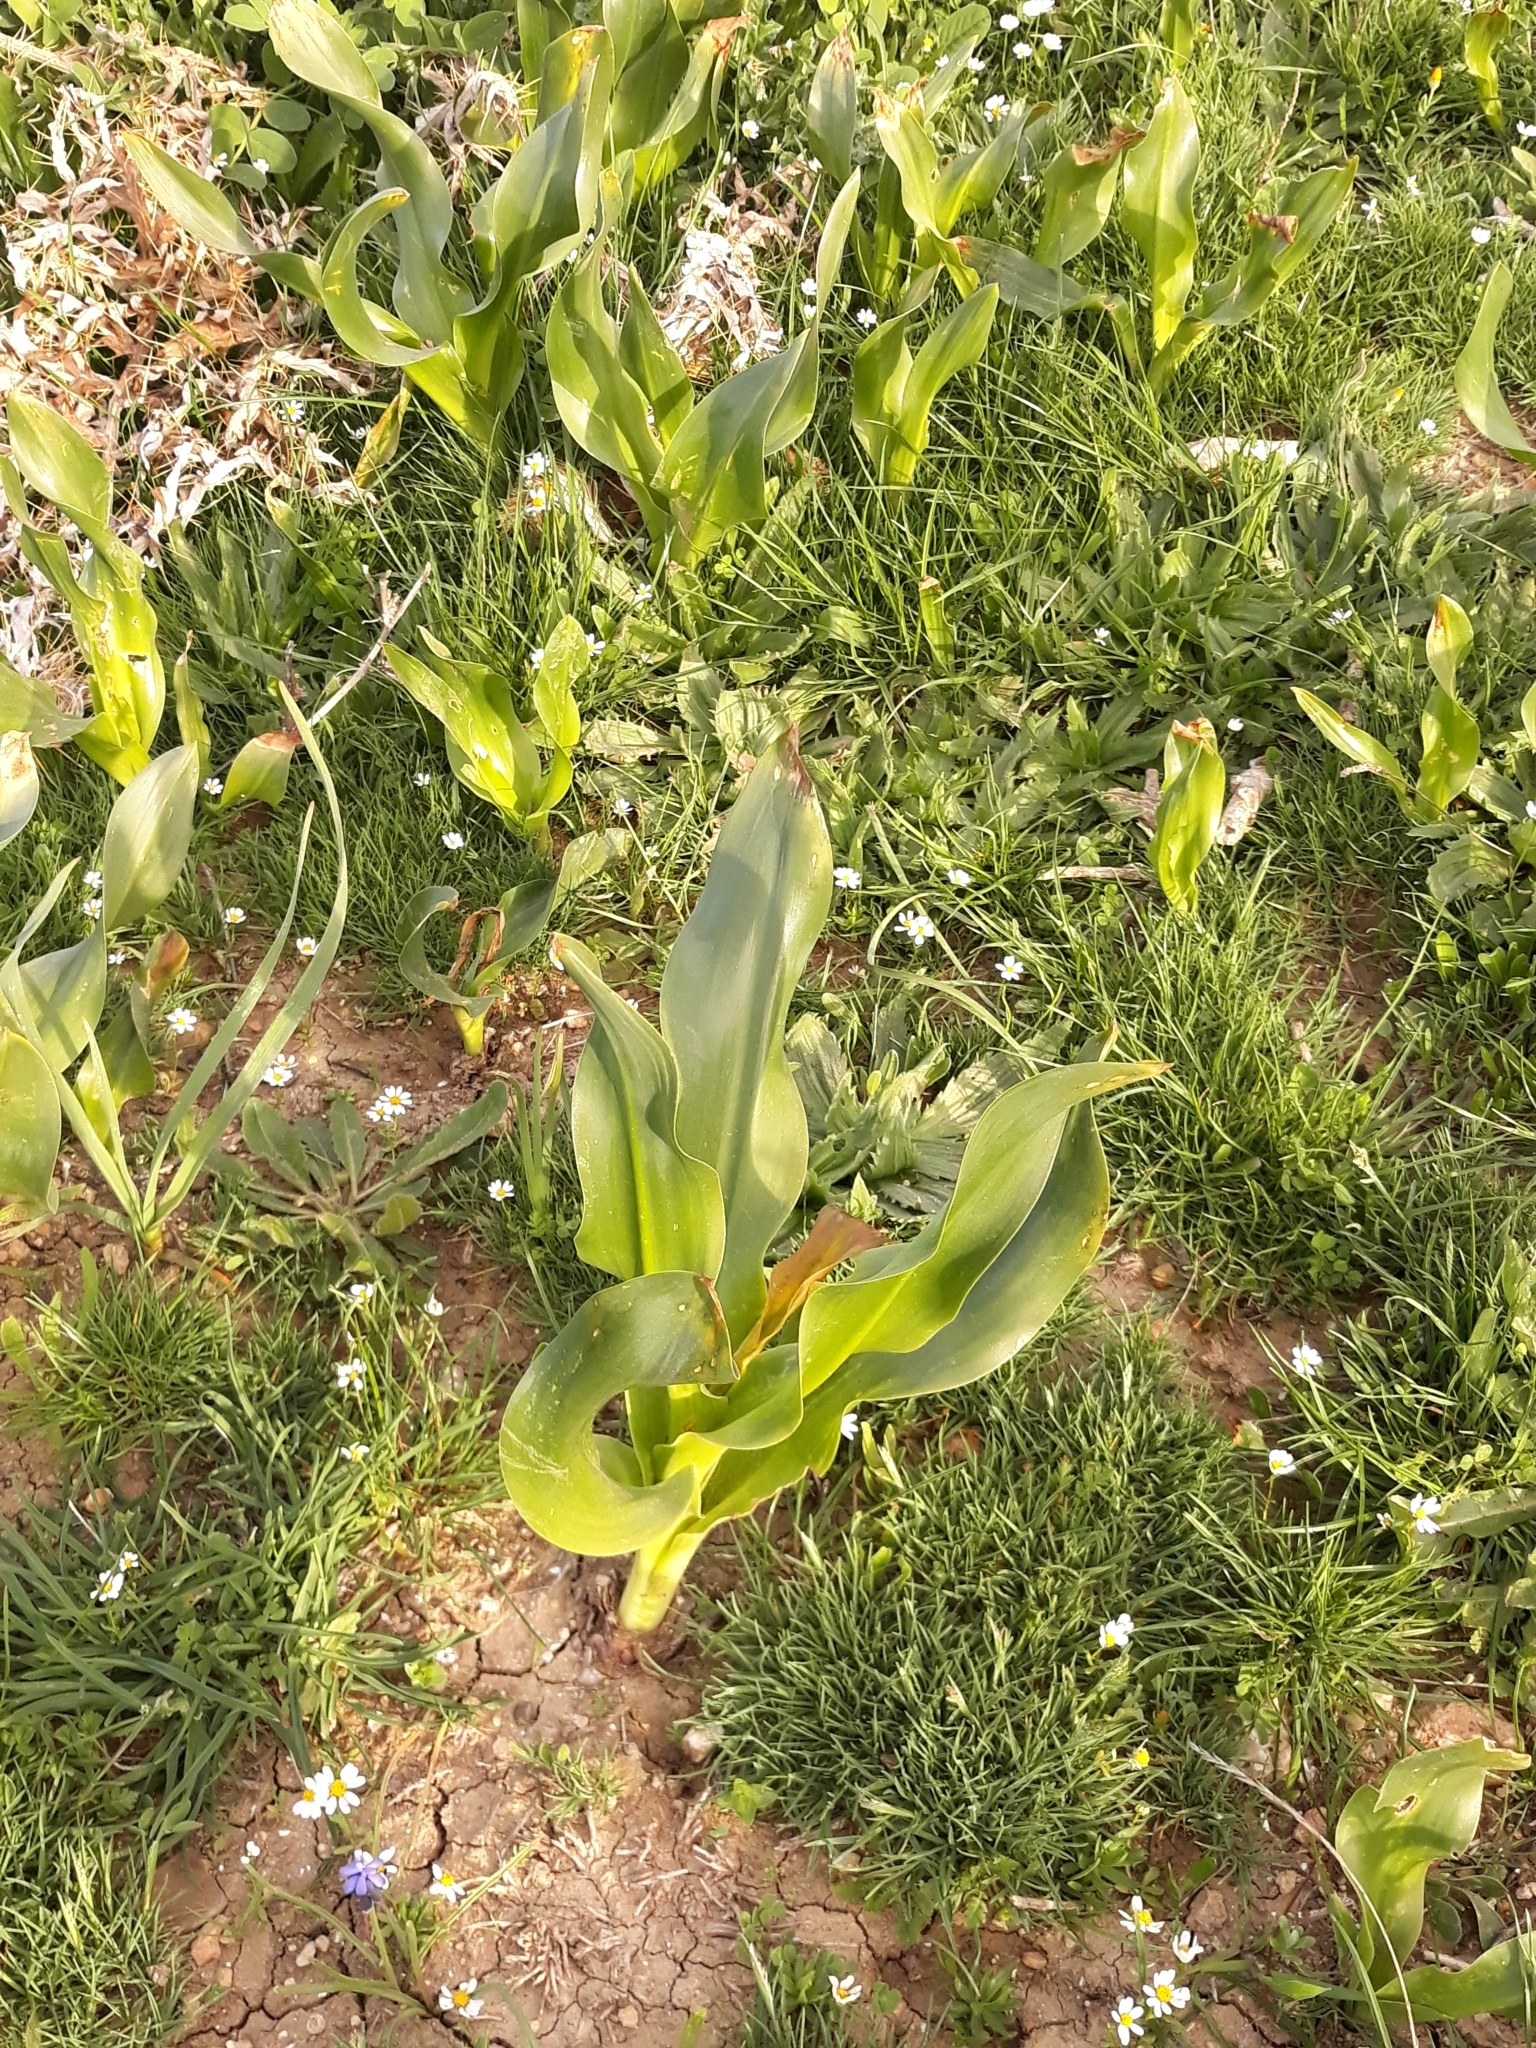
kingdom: Plantae
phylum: Tracheophyta
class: Liliopsida
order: Asparagales
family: Asparagaceae
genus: Drimia
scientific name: Drimia numidica
